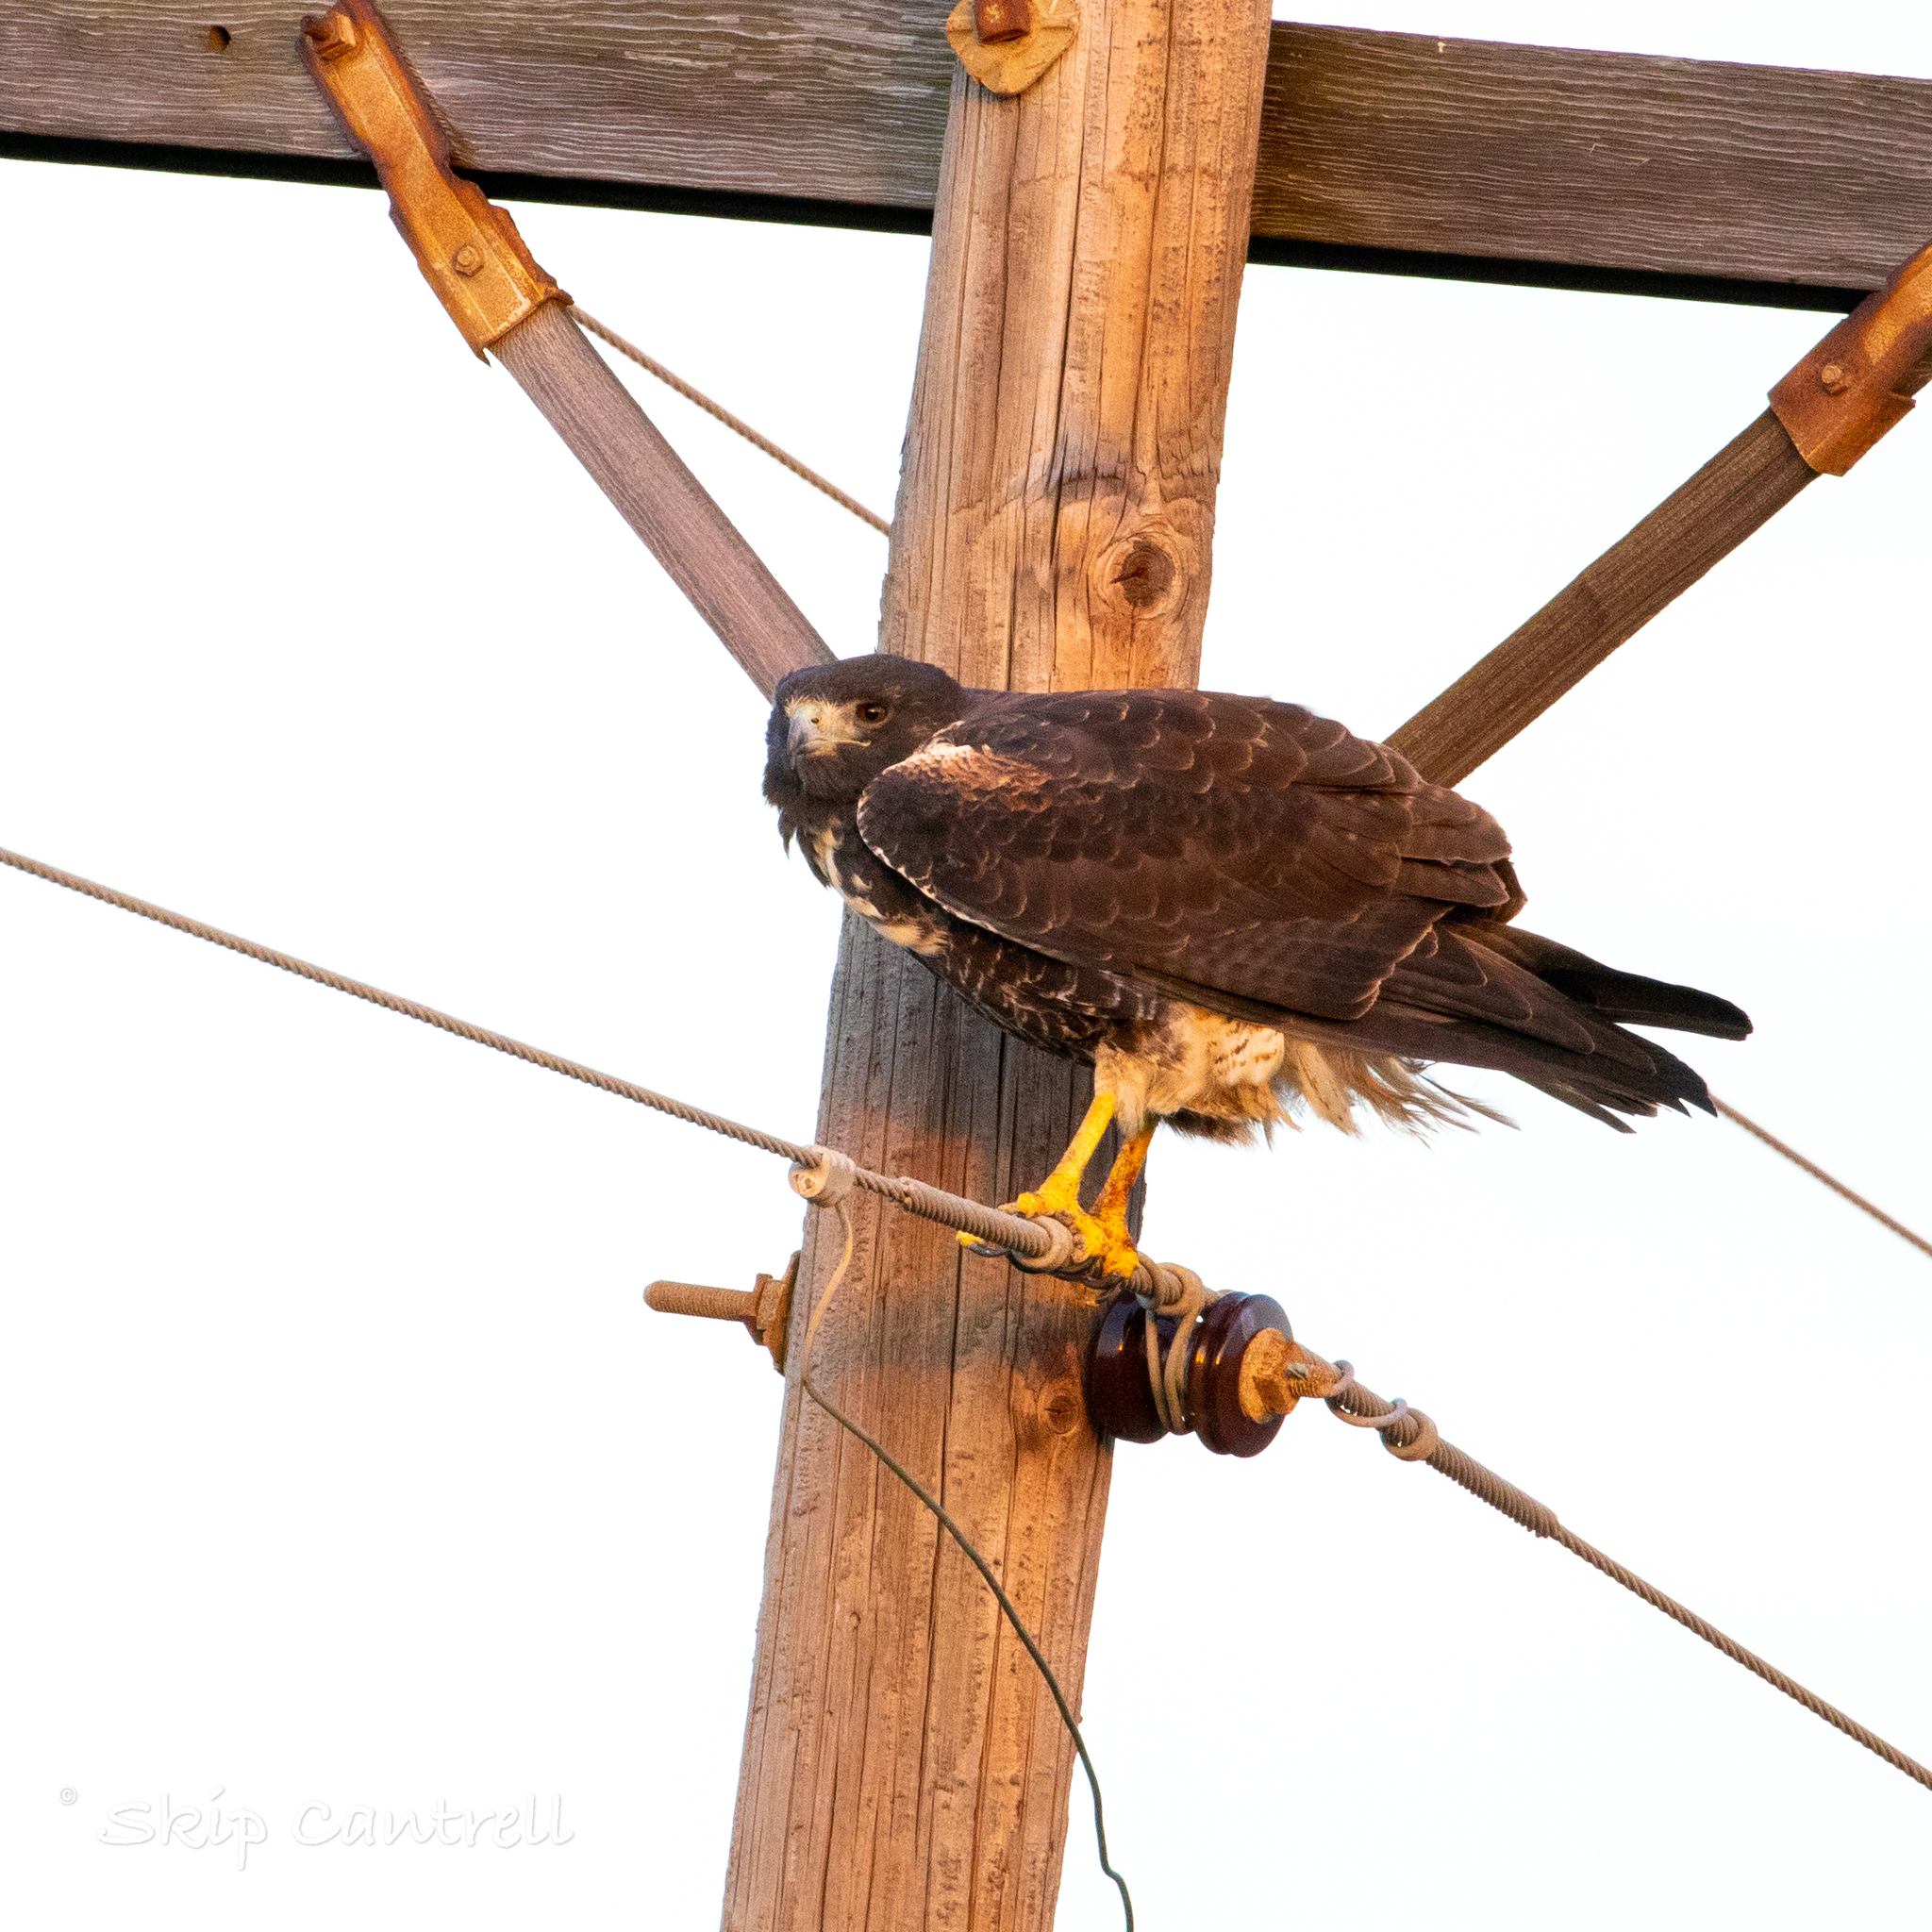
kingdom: Animalia
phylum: Chordata
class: Aves
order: Accipitriformes
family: Accipitridae
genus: Buteo
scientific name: Buteo albicaudatus
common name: White-tailed hawk
